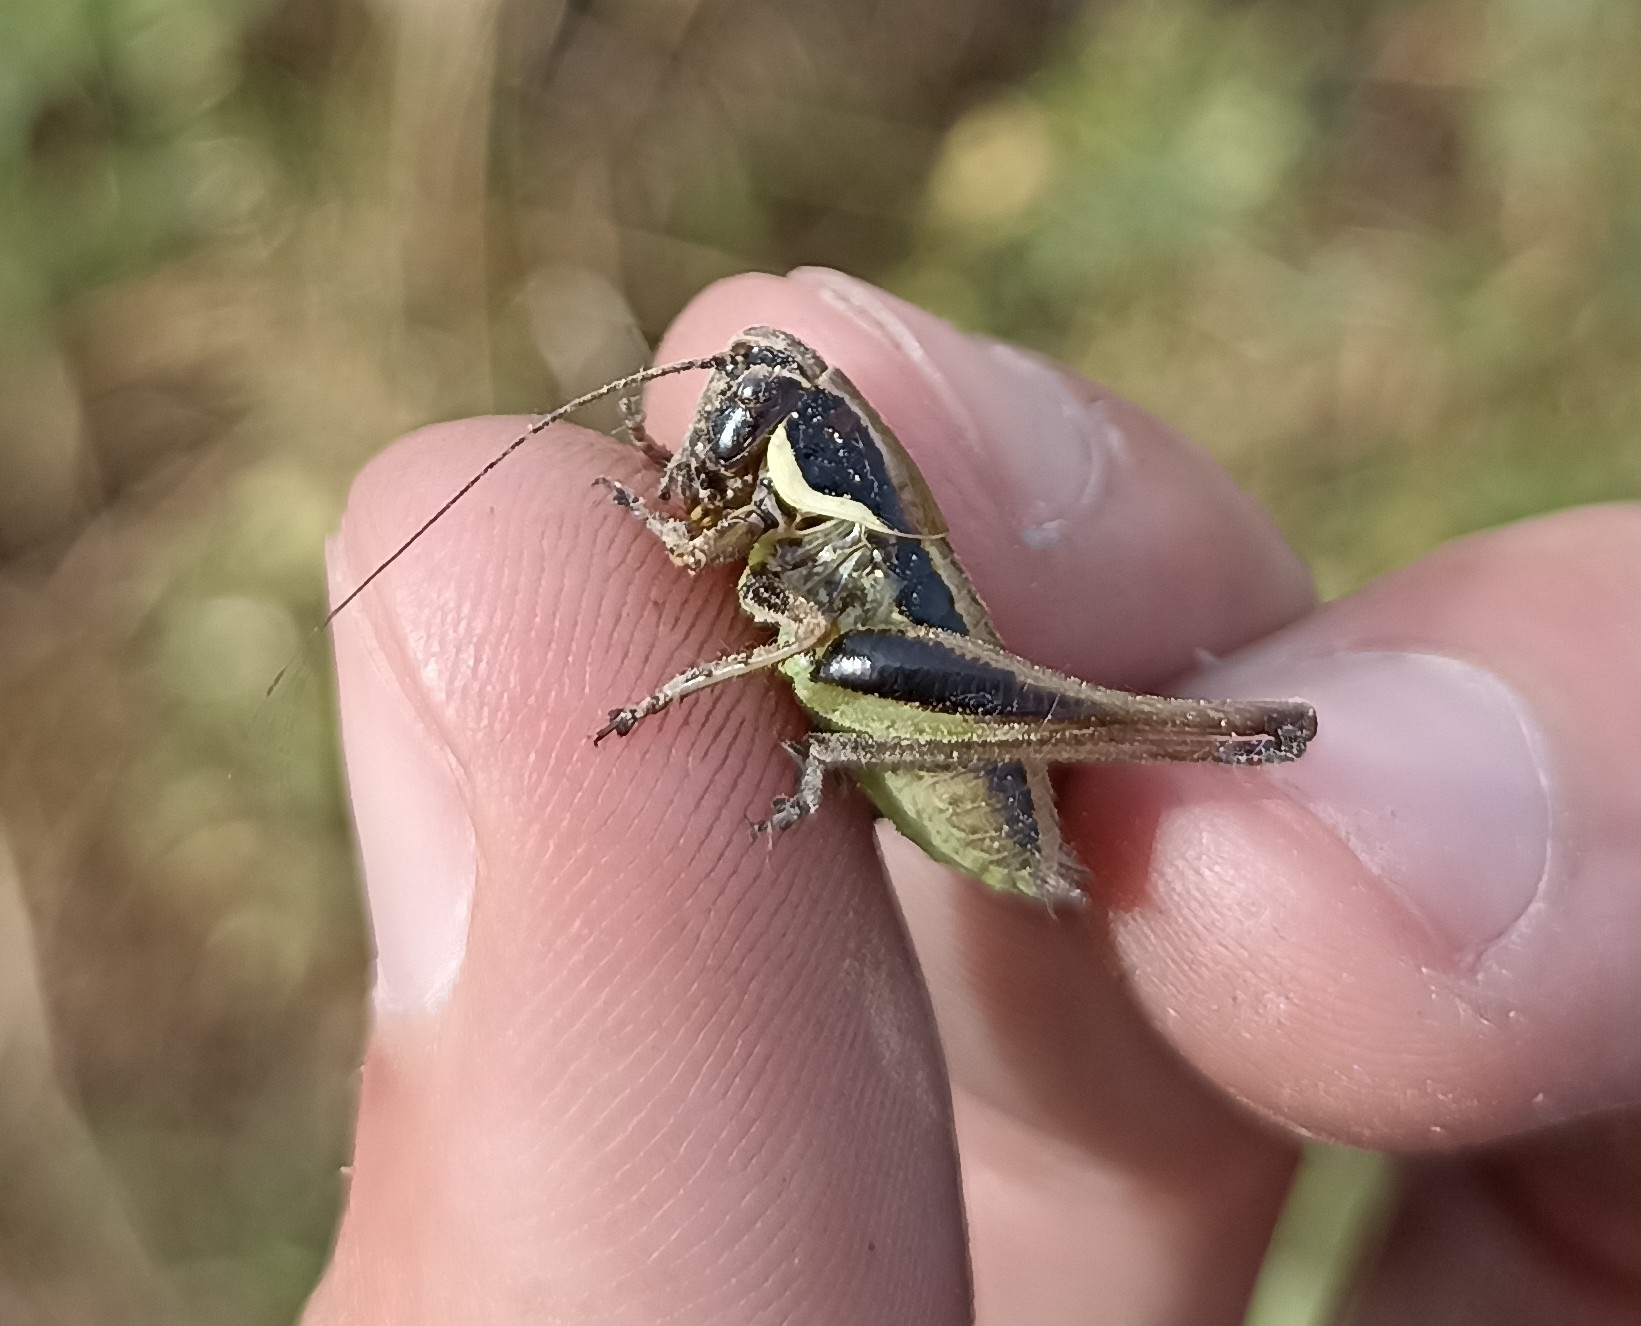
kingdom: Animalia
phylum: Arthropoda
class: Insecta
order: Orthoptera
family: Tettigoniidae
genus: Pholidoptera
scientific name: Pholidoptera femorata
